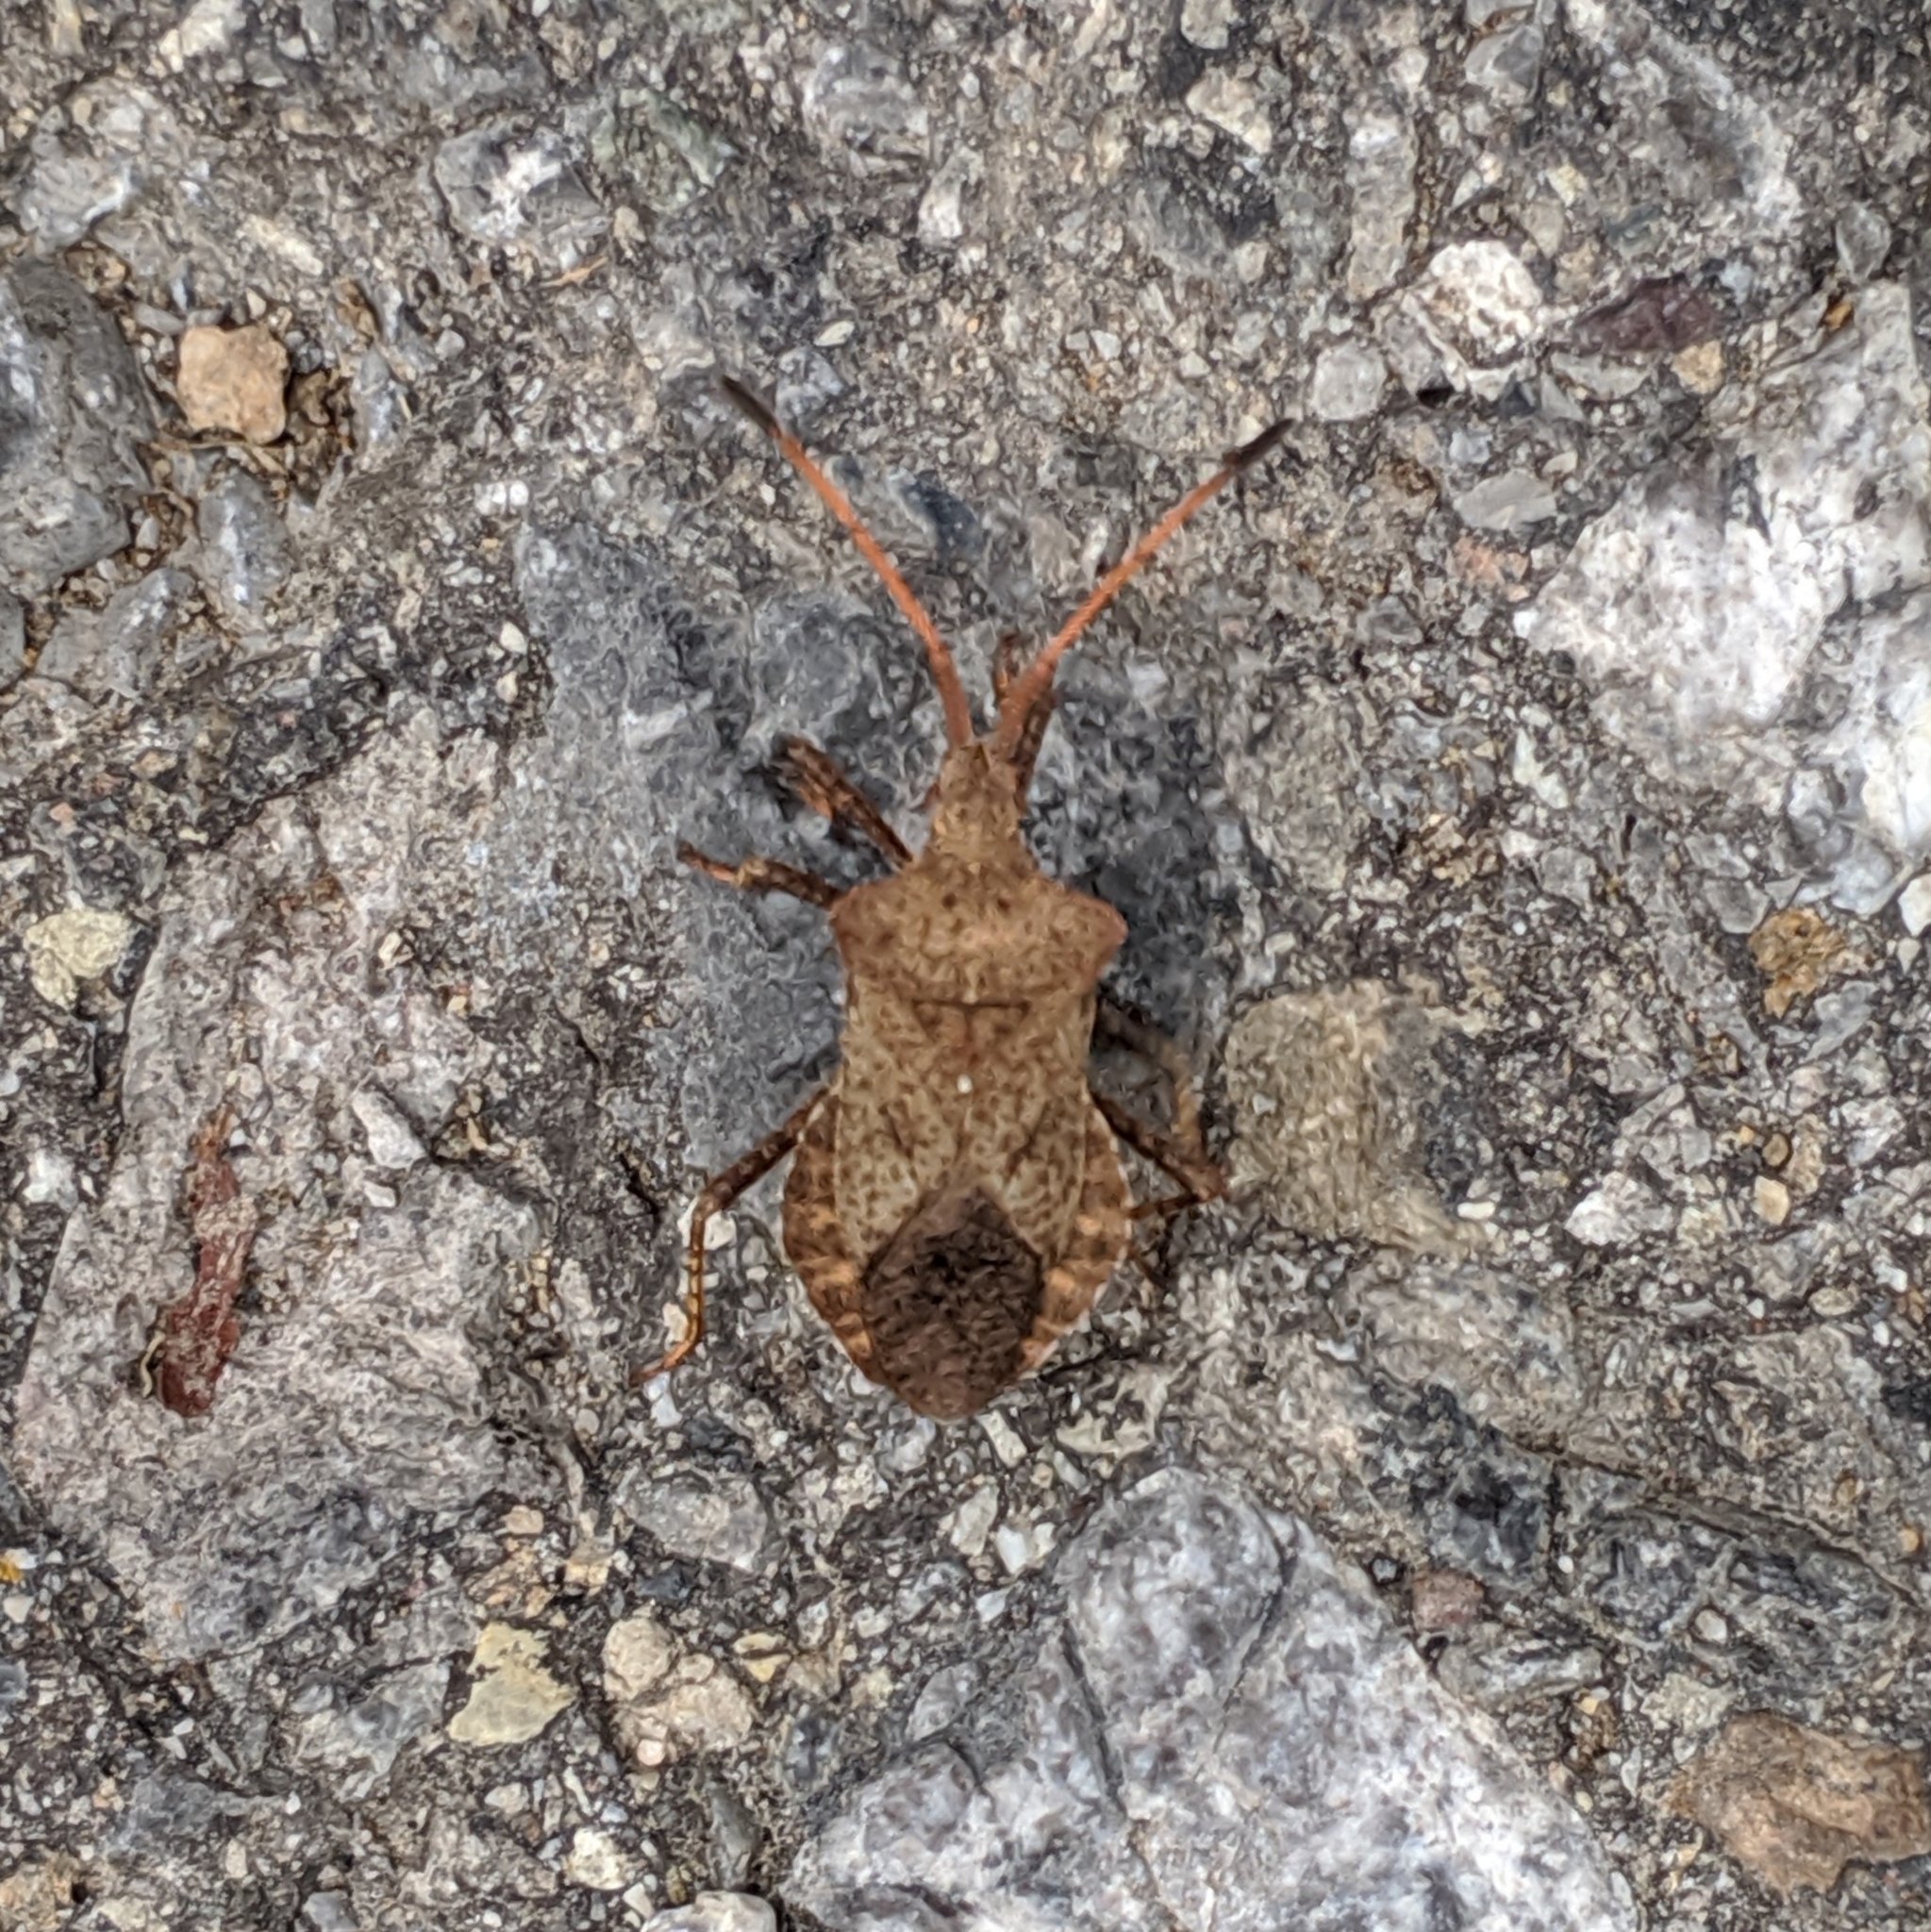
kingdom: Animalia
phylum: Arthropoda
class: Insecta
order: Hemiptera
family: Coreidae
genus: Coreus
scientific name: Coreus marginatus
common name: Dock bug
